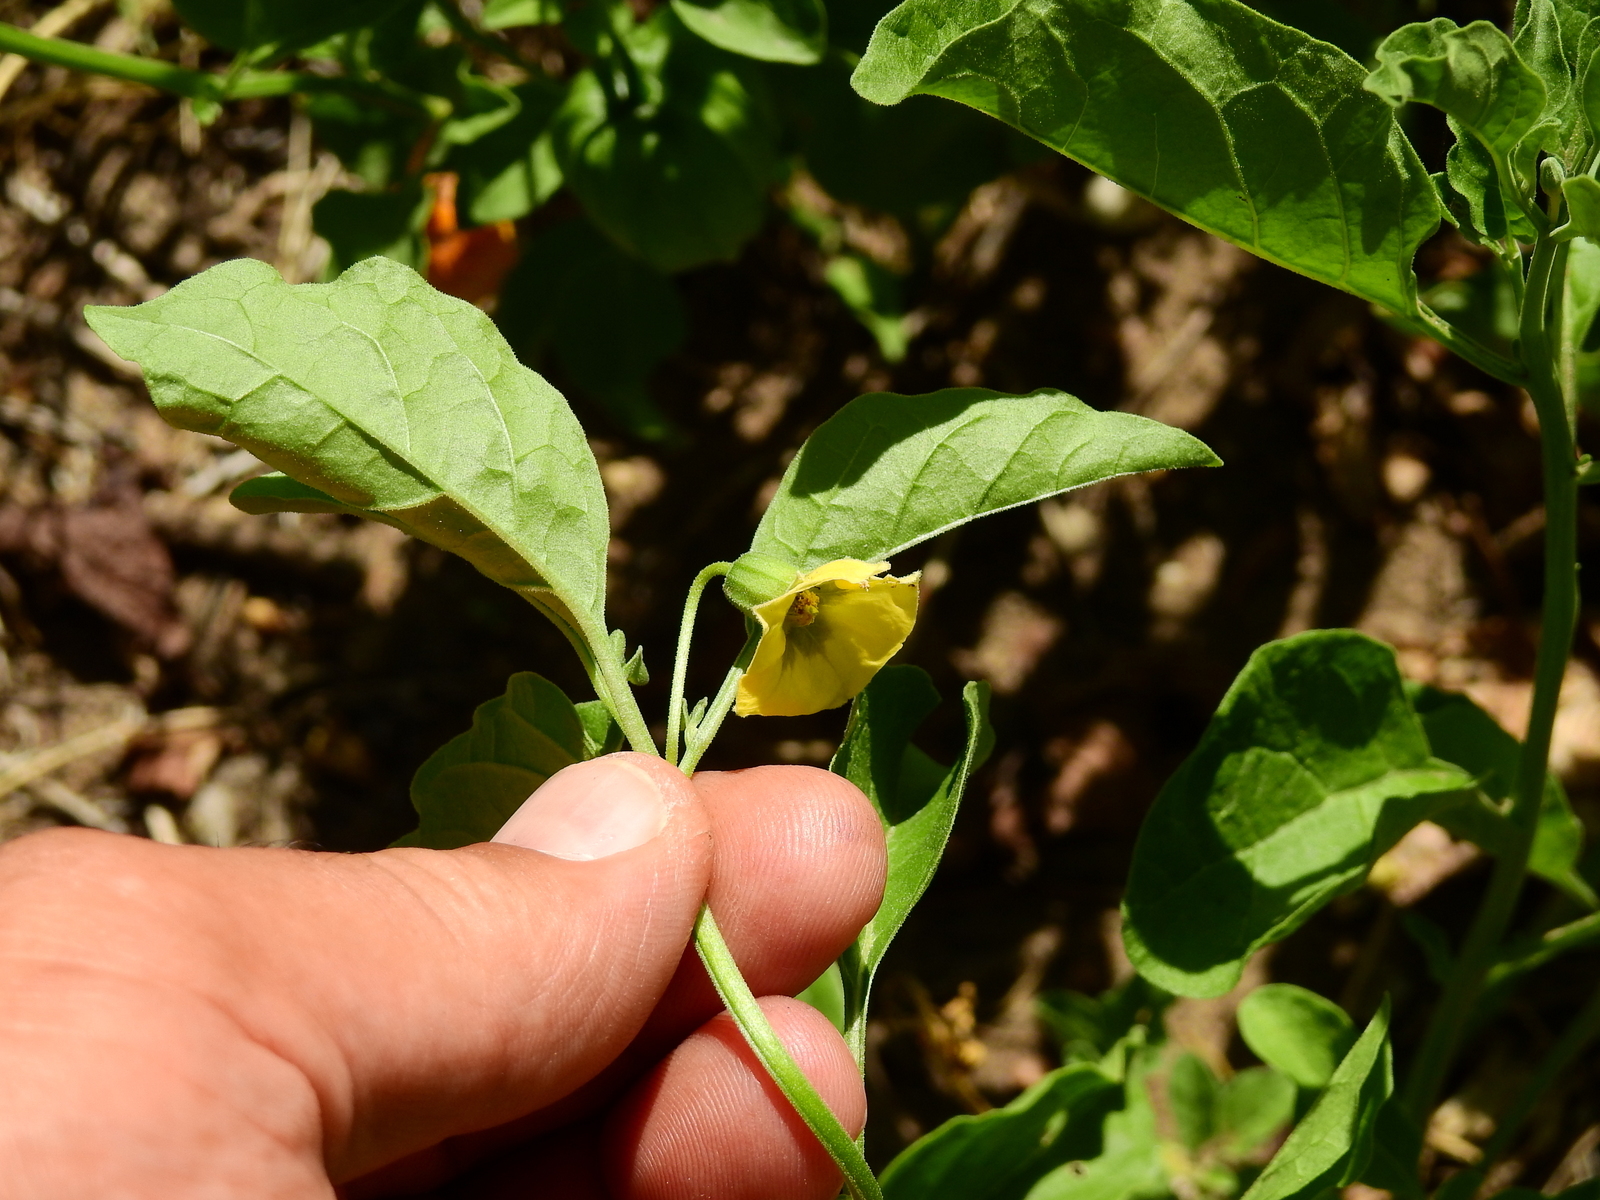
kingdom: Plantae
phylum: Tracheophyta
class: Magnoliopsida
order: Solanales
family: Solanaceae
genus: Physalis
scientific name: Physalis viscosa
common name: Stellate ground-cherry
